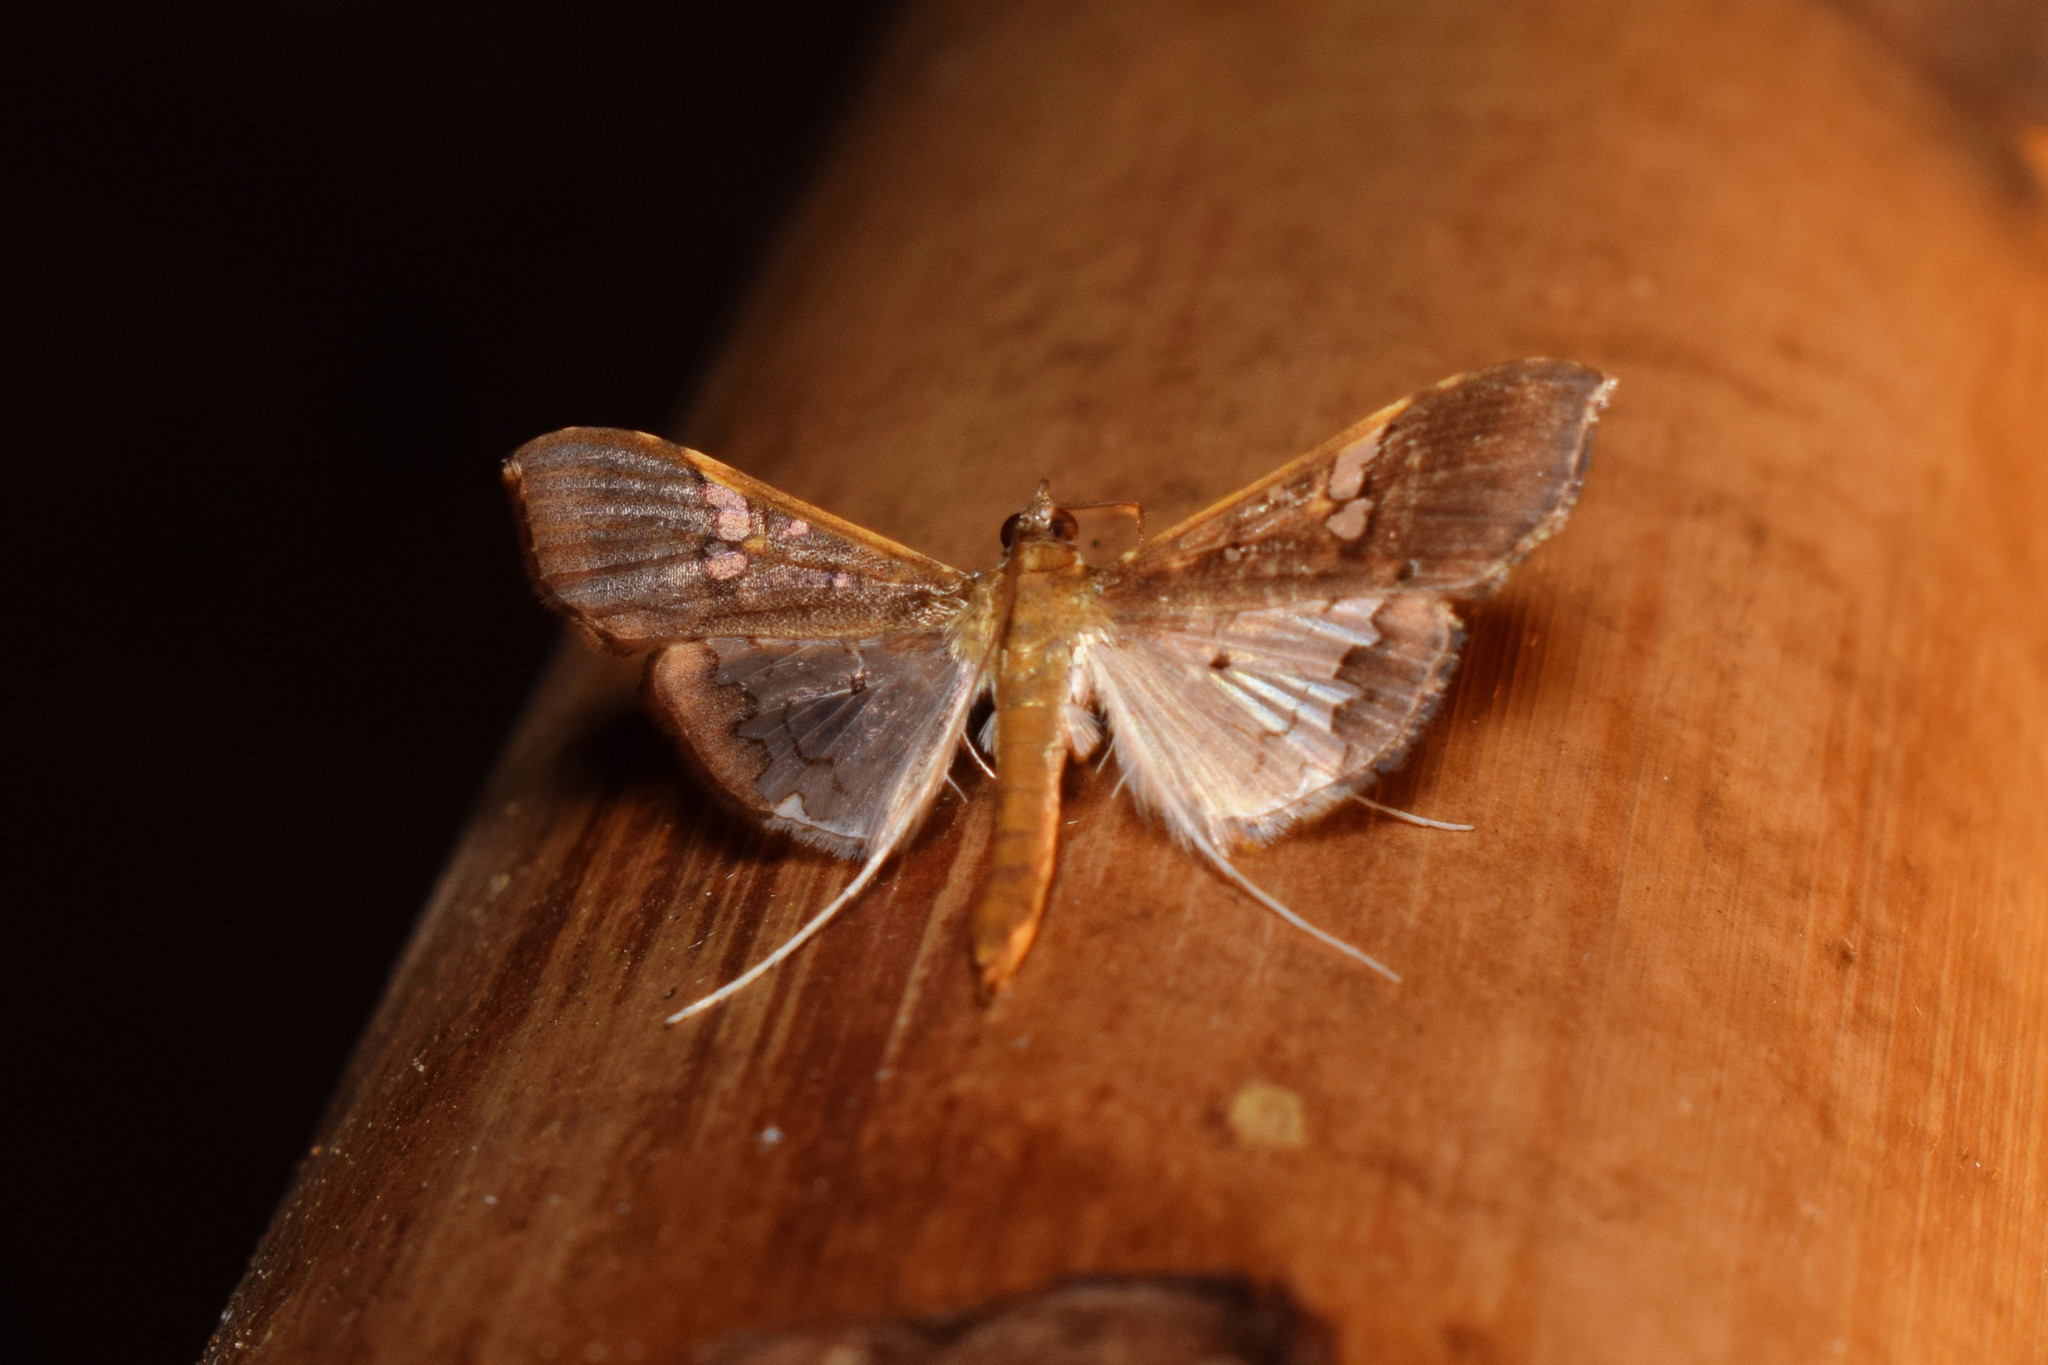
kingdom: Animalia
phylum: Arthropoda
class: Insecta
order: Lepidoptera
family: Crambidae
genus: Maruca
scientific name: Maruca vitrata
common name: Maruca pod borer
